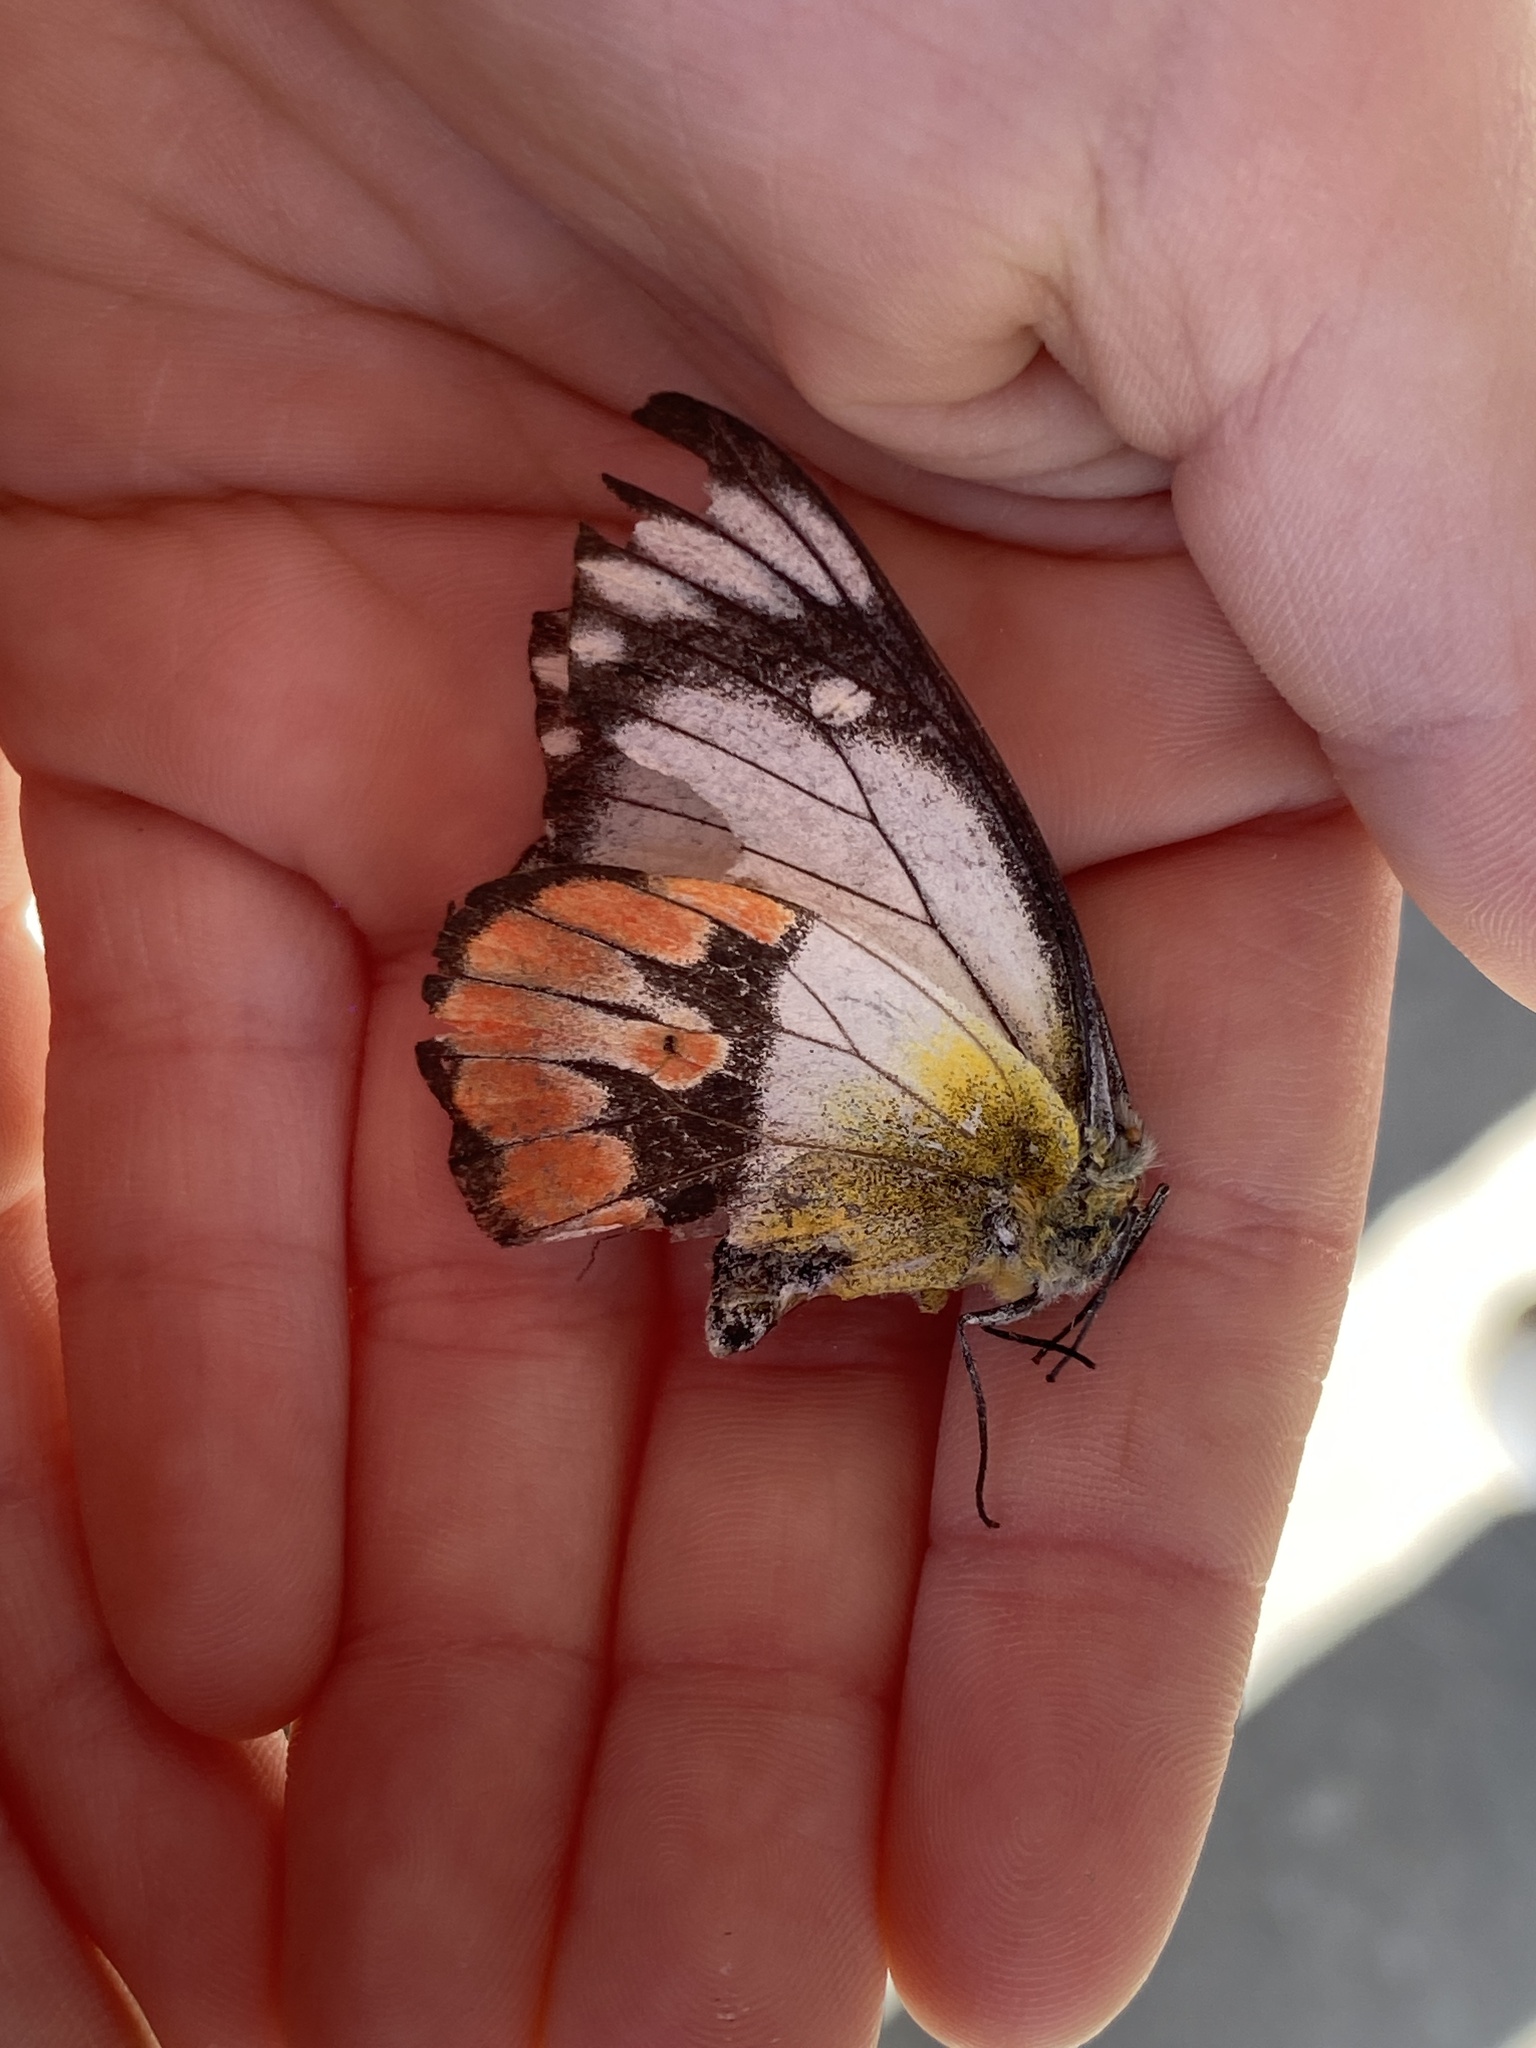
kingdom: Animalia
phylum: Arthropoda
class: Insecta
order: Lepidoptera
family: Pieridae
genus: Delias
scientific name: Delias argenthona
